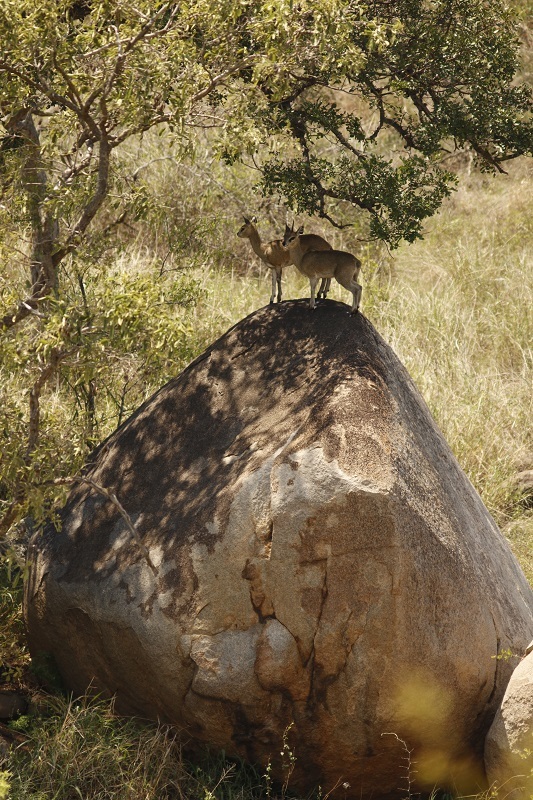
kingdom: Animalia
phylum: Chordata
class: Mammalia
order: Artiodactyla
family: Bovidae
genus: Oreotragus
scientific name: Oreotragus oreotragus
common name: Klipspringer
